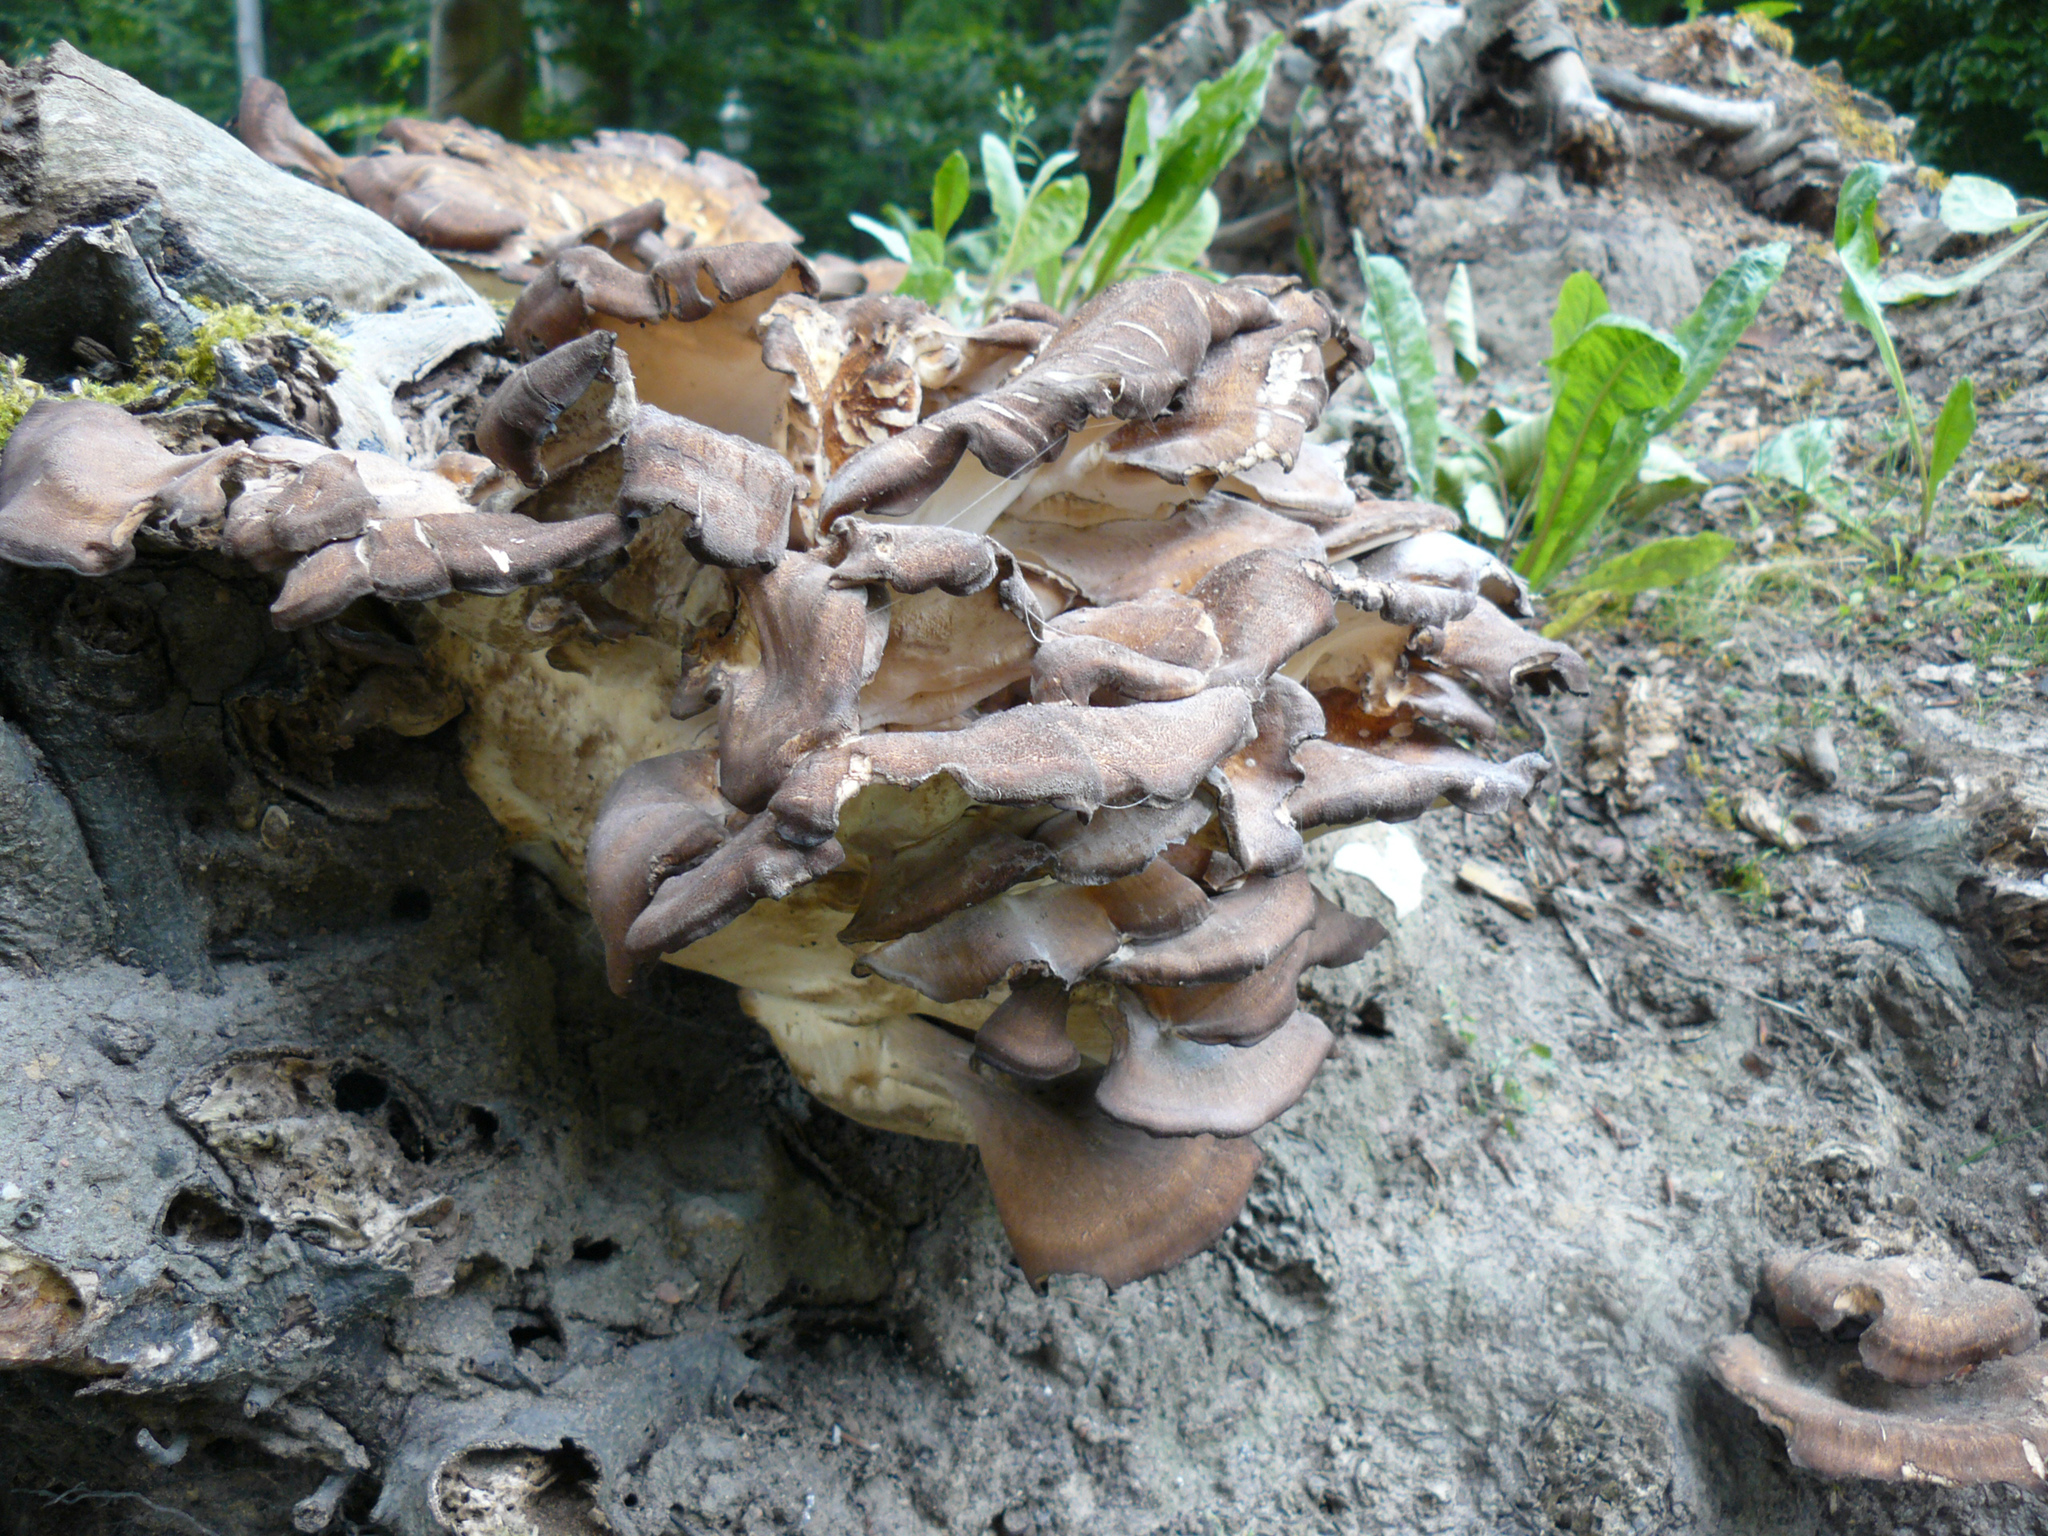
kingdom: Fungi
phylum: Basidiomycota
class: Agaricomycetes
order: Polyporales
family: Meripilaceae
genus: Meripilus
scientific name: Meripilus giganteus
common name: Giant polypore
